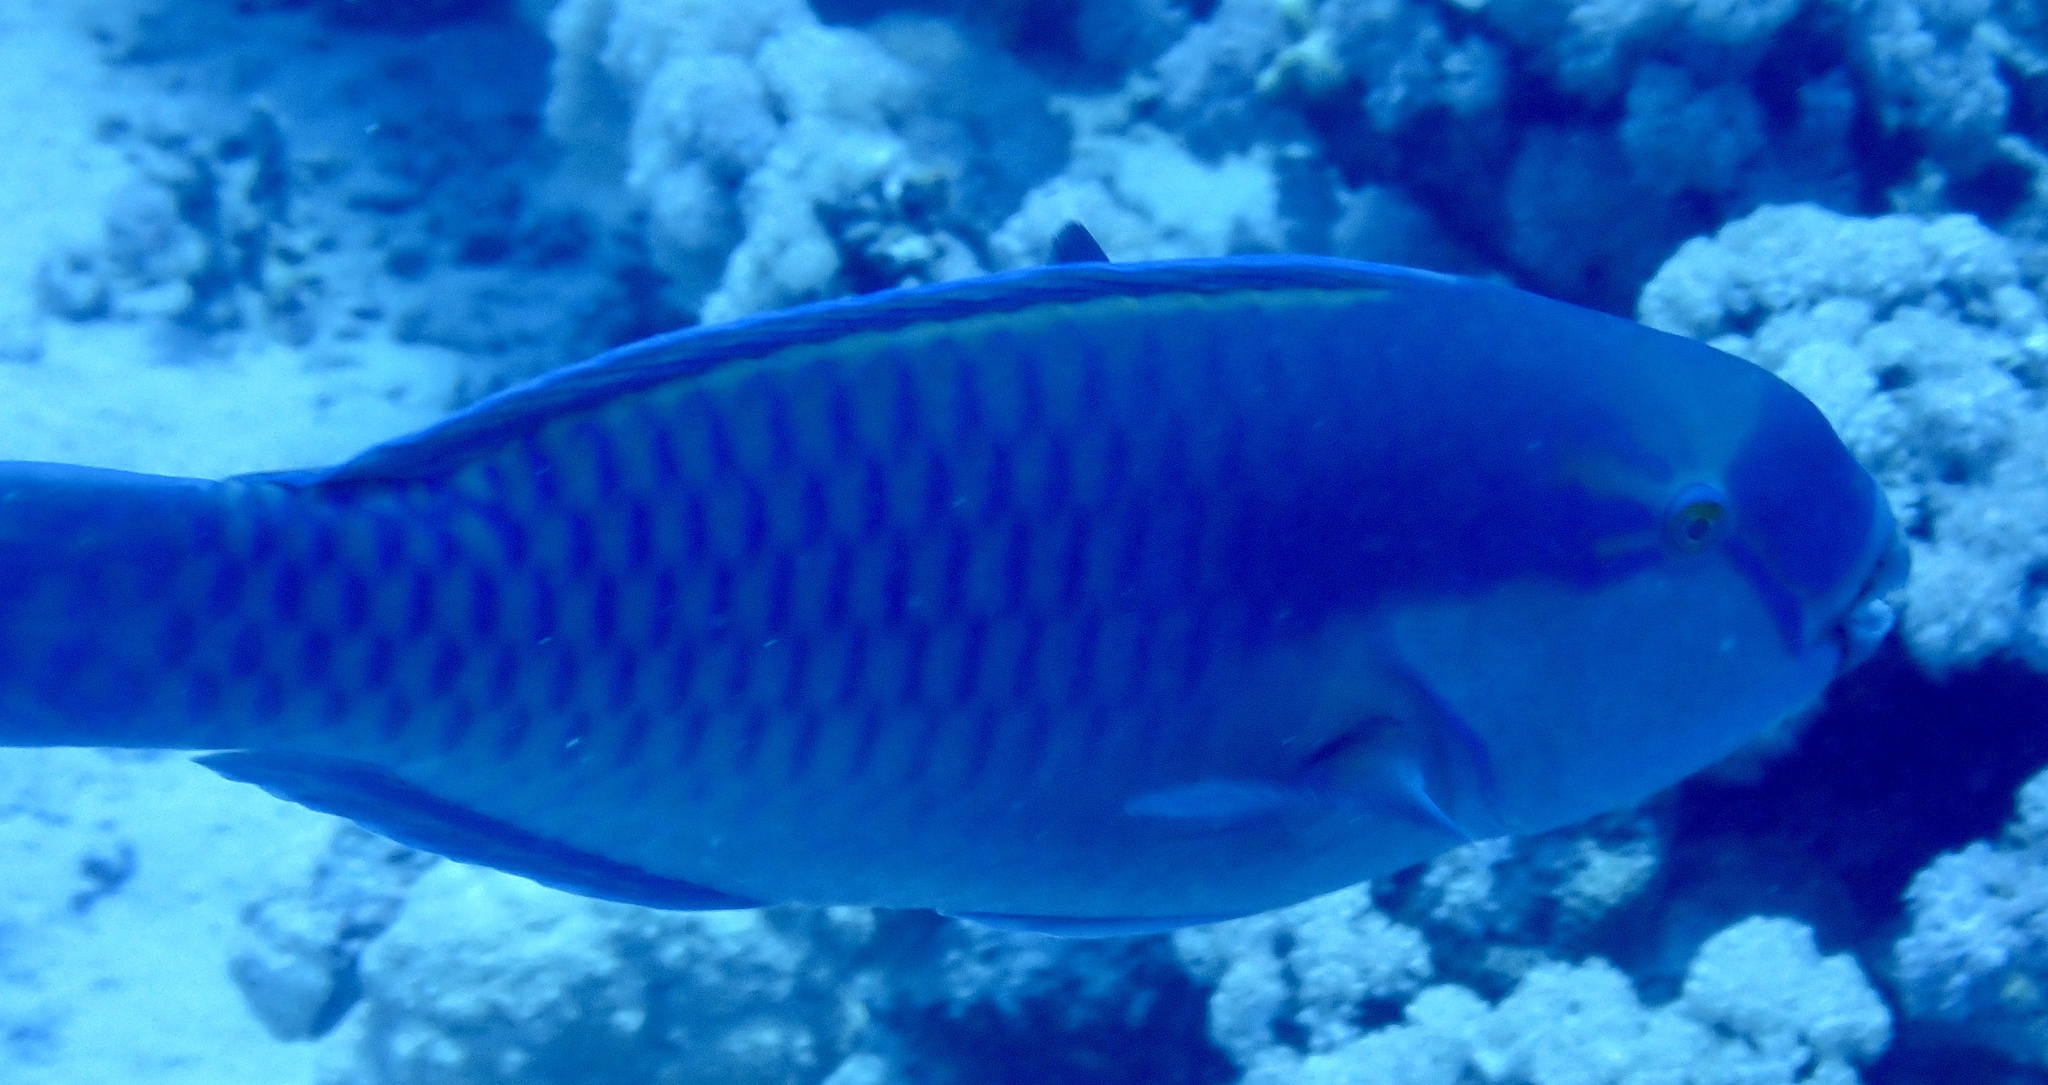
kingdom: Animalia
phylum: Chordata
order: Perciformes
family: Scaridae
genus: Chlorurus
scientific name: Chlorurus gibbus
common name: Heavybeak parrotfish
